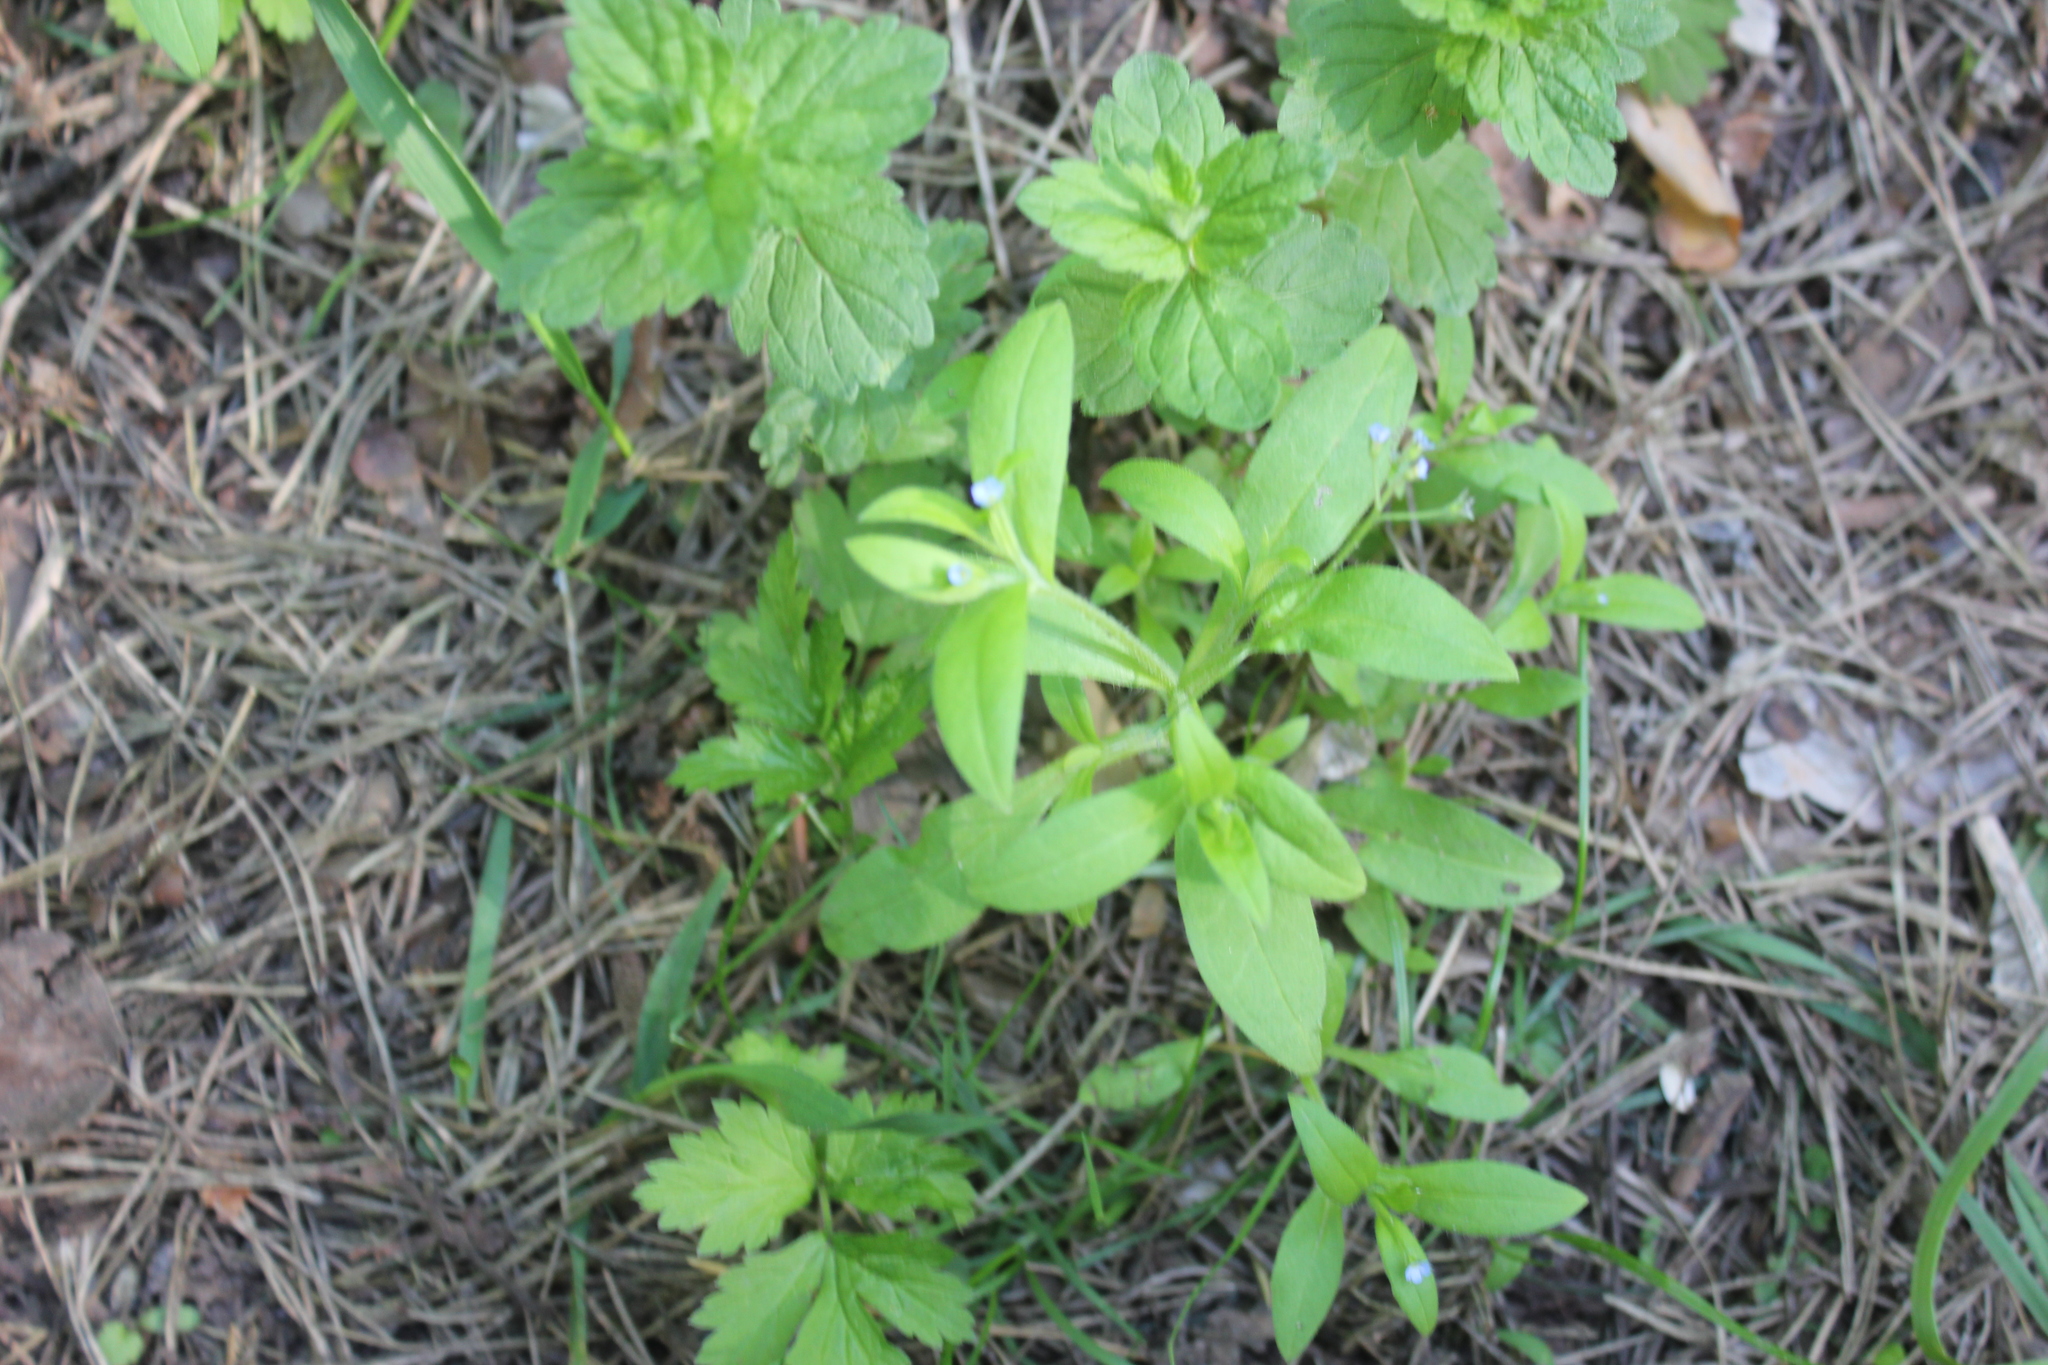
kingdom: Plantae
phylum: Tracheophyta
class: Magnoliopsida
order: Boraginales
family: Boraginaceae
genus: Myosotis
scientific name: Myosotis sparsiflora
